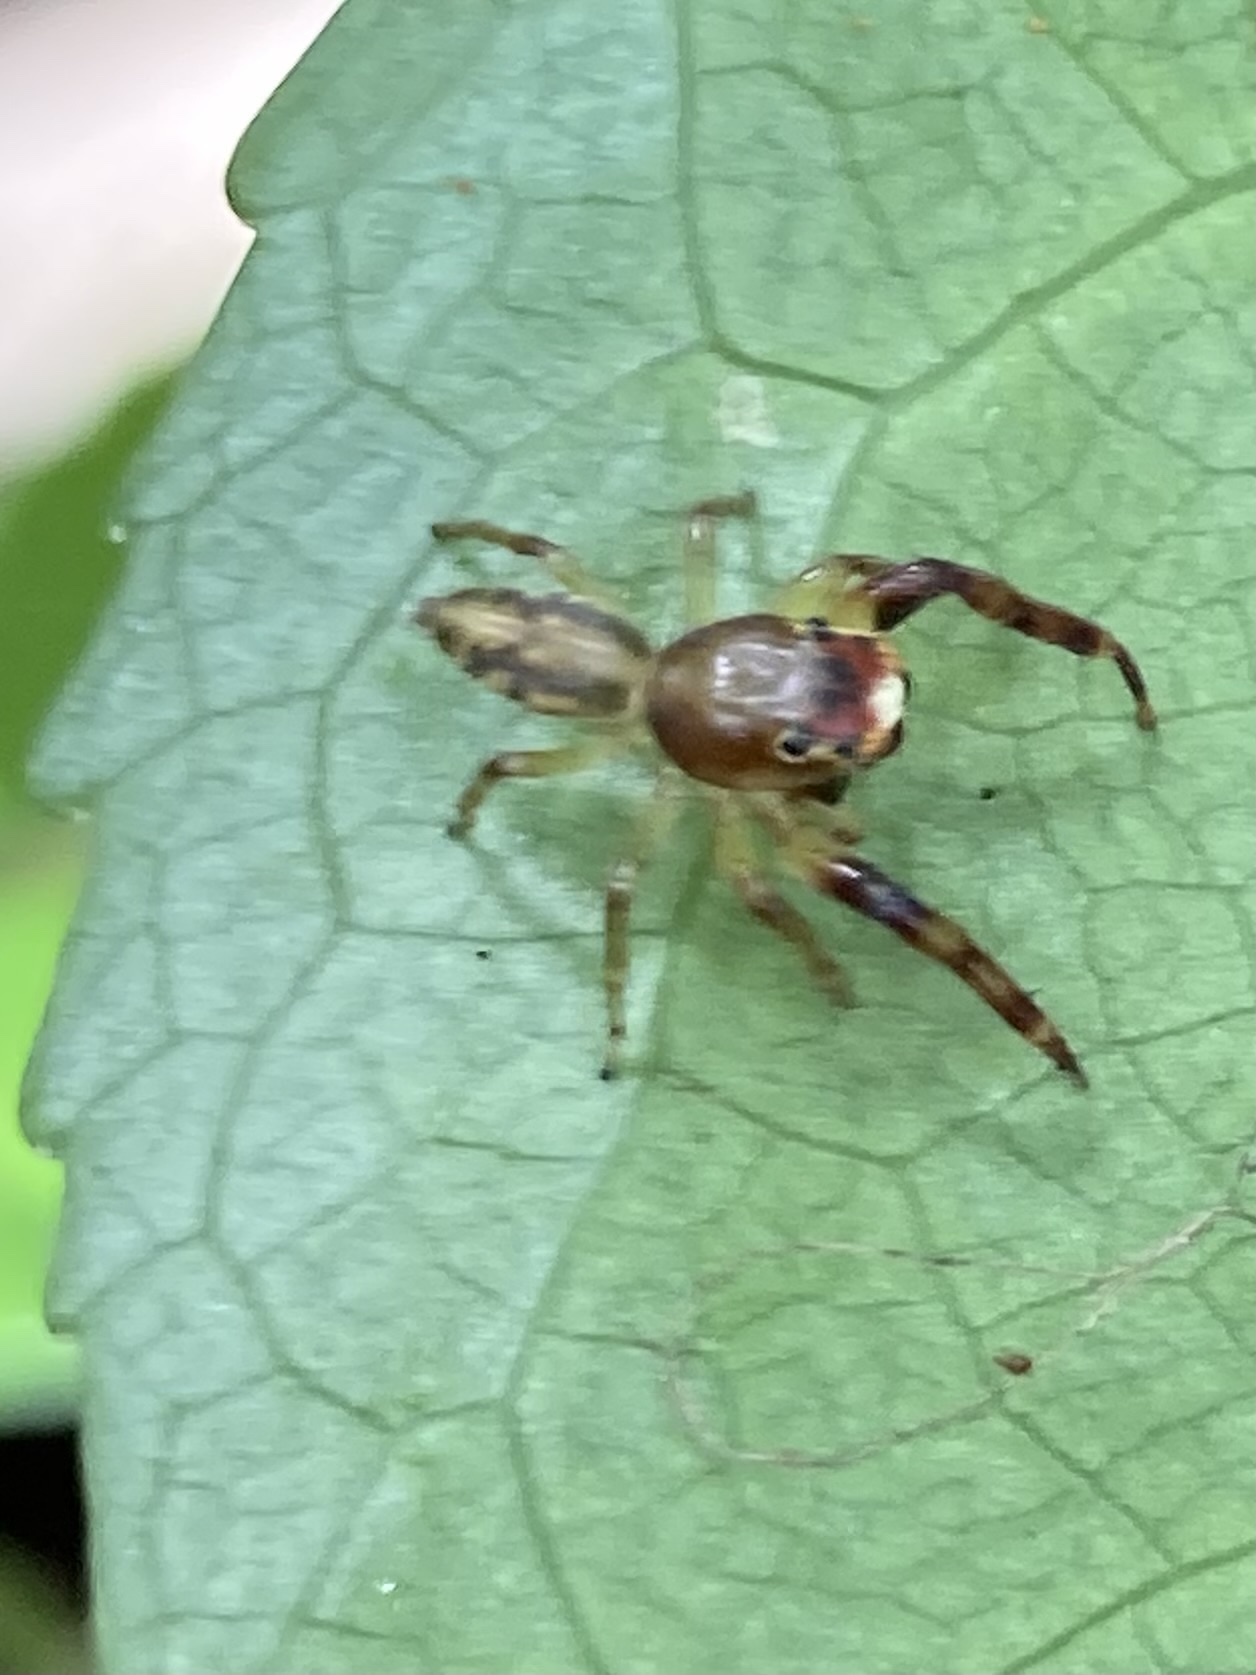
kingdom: Animalia
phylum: Arthropoda
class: Arachnida
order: Araneae
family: Salticidae
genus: Trite
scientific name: Trite mustilina
